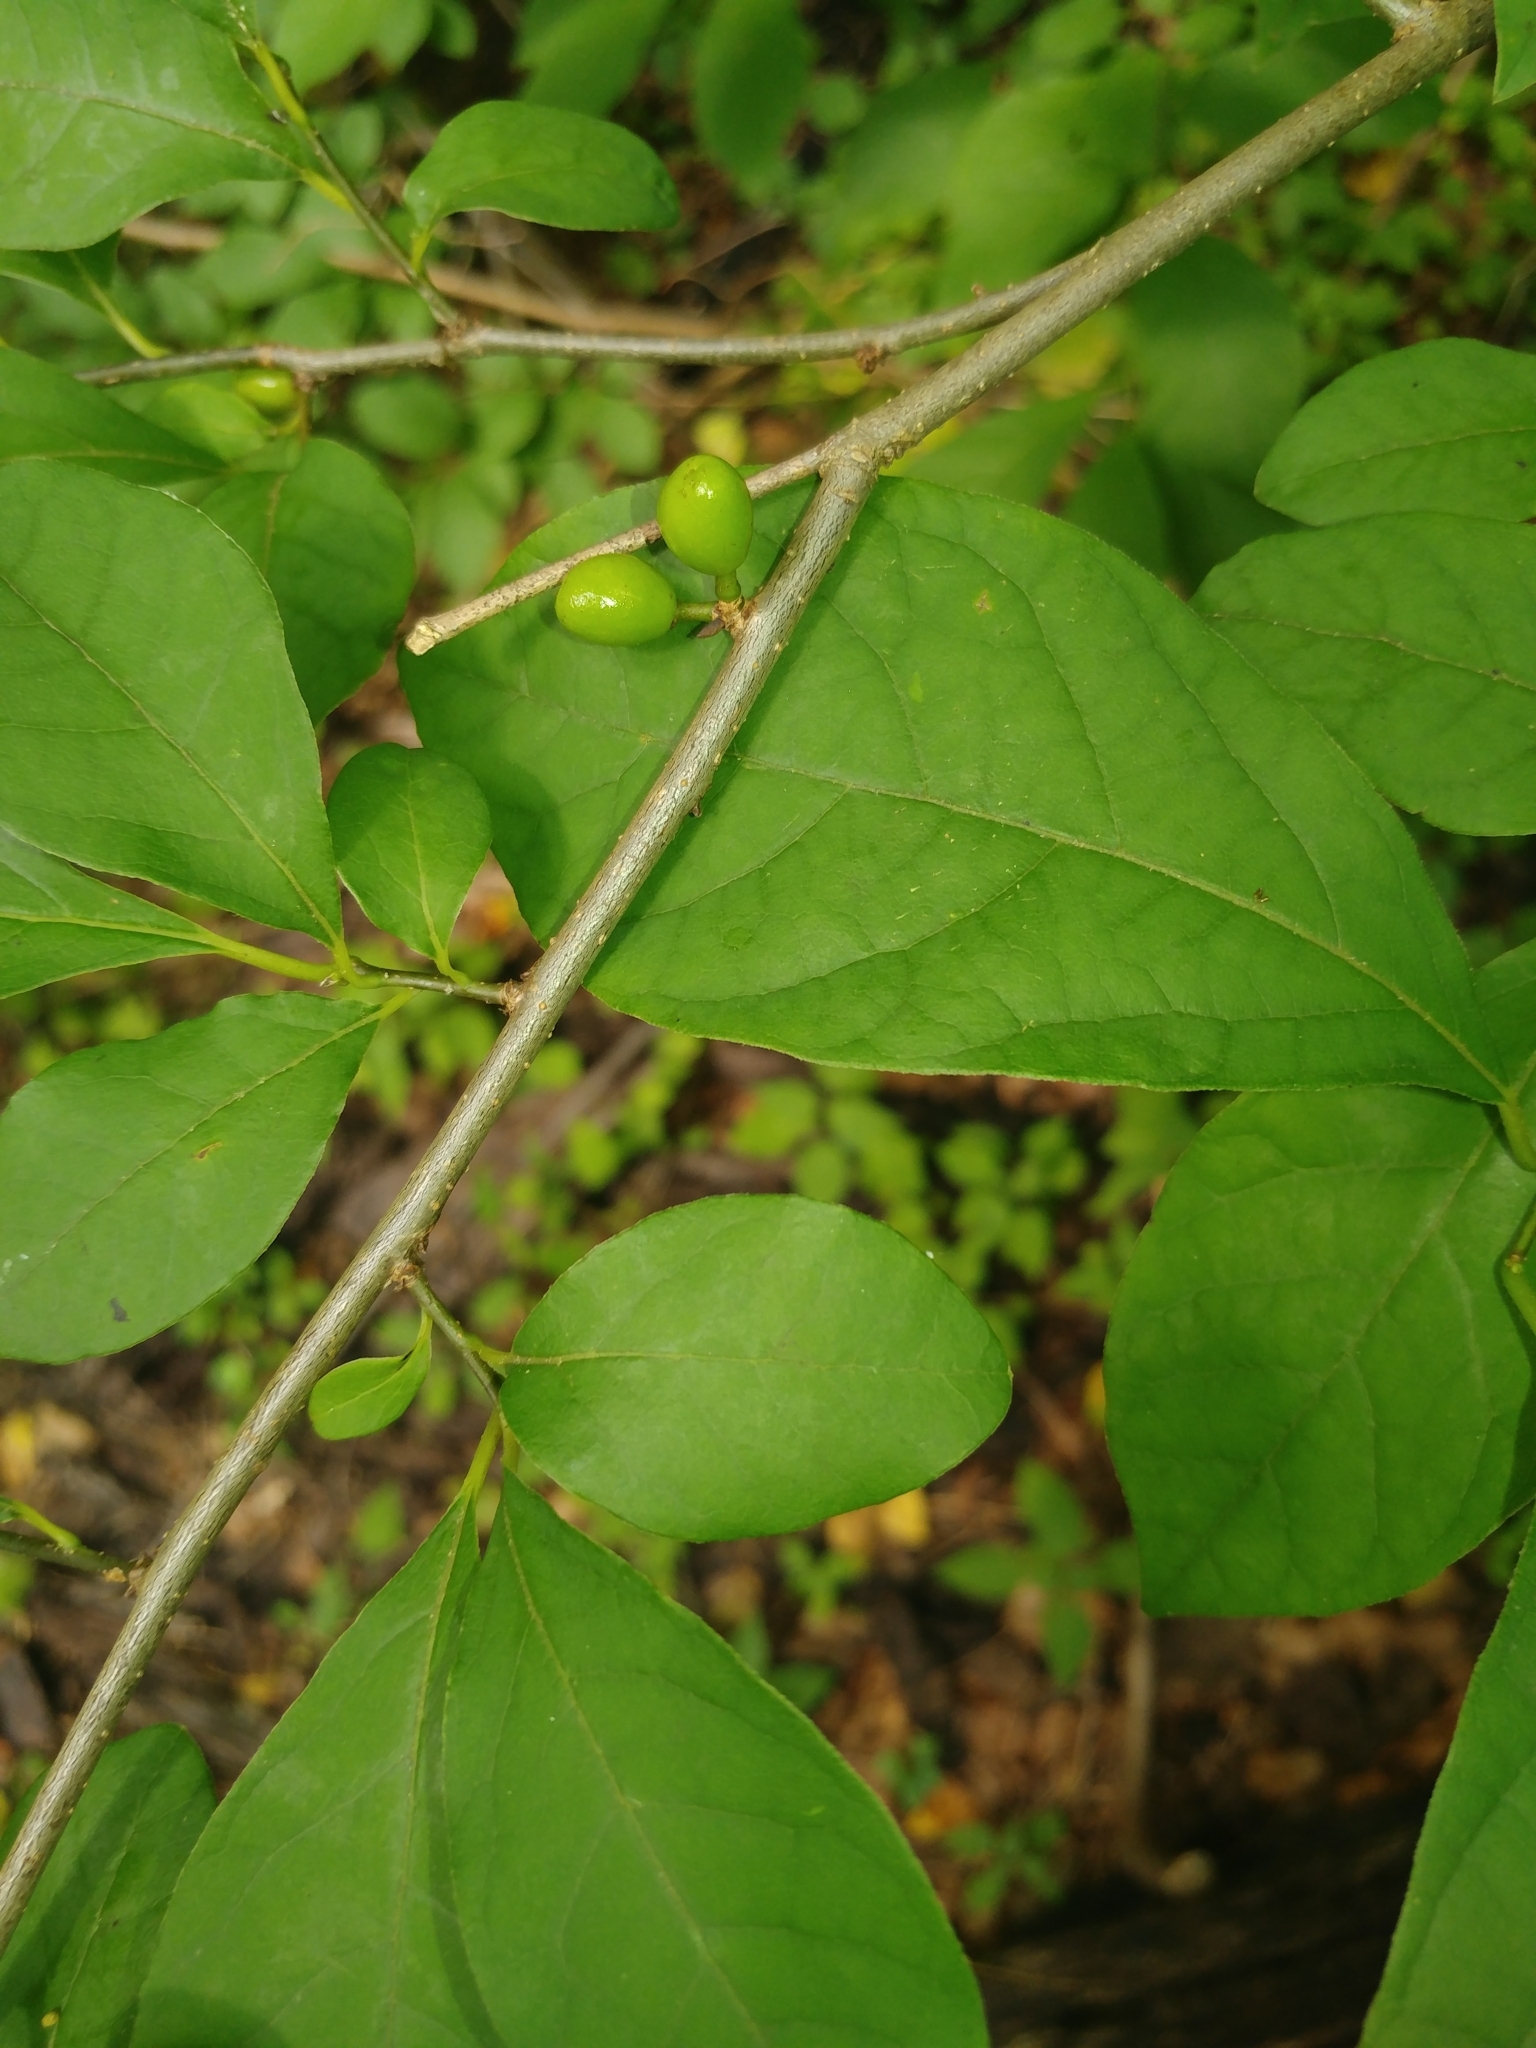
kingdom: Plantae
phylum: Tracheophyta
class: Magnoliopsida
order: Laurales
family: Lauraceae
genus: Lindera
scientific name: Lindera benzoin
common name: Spicebush
